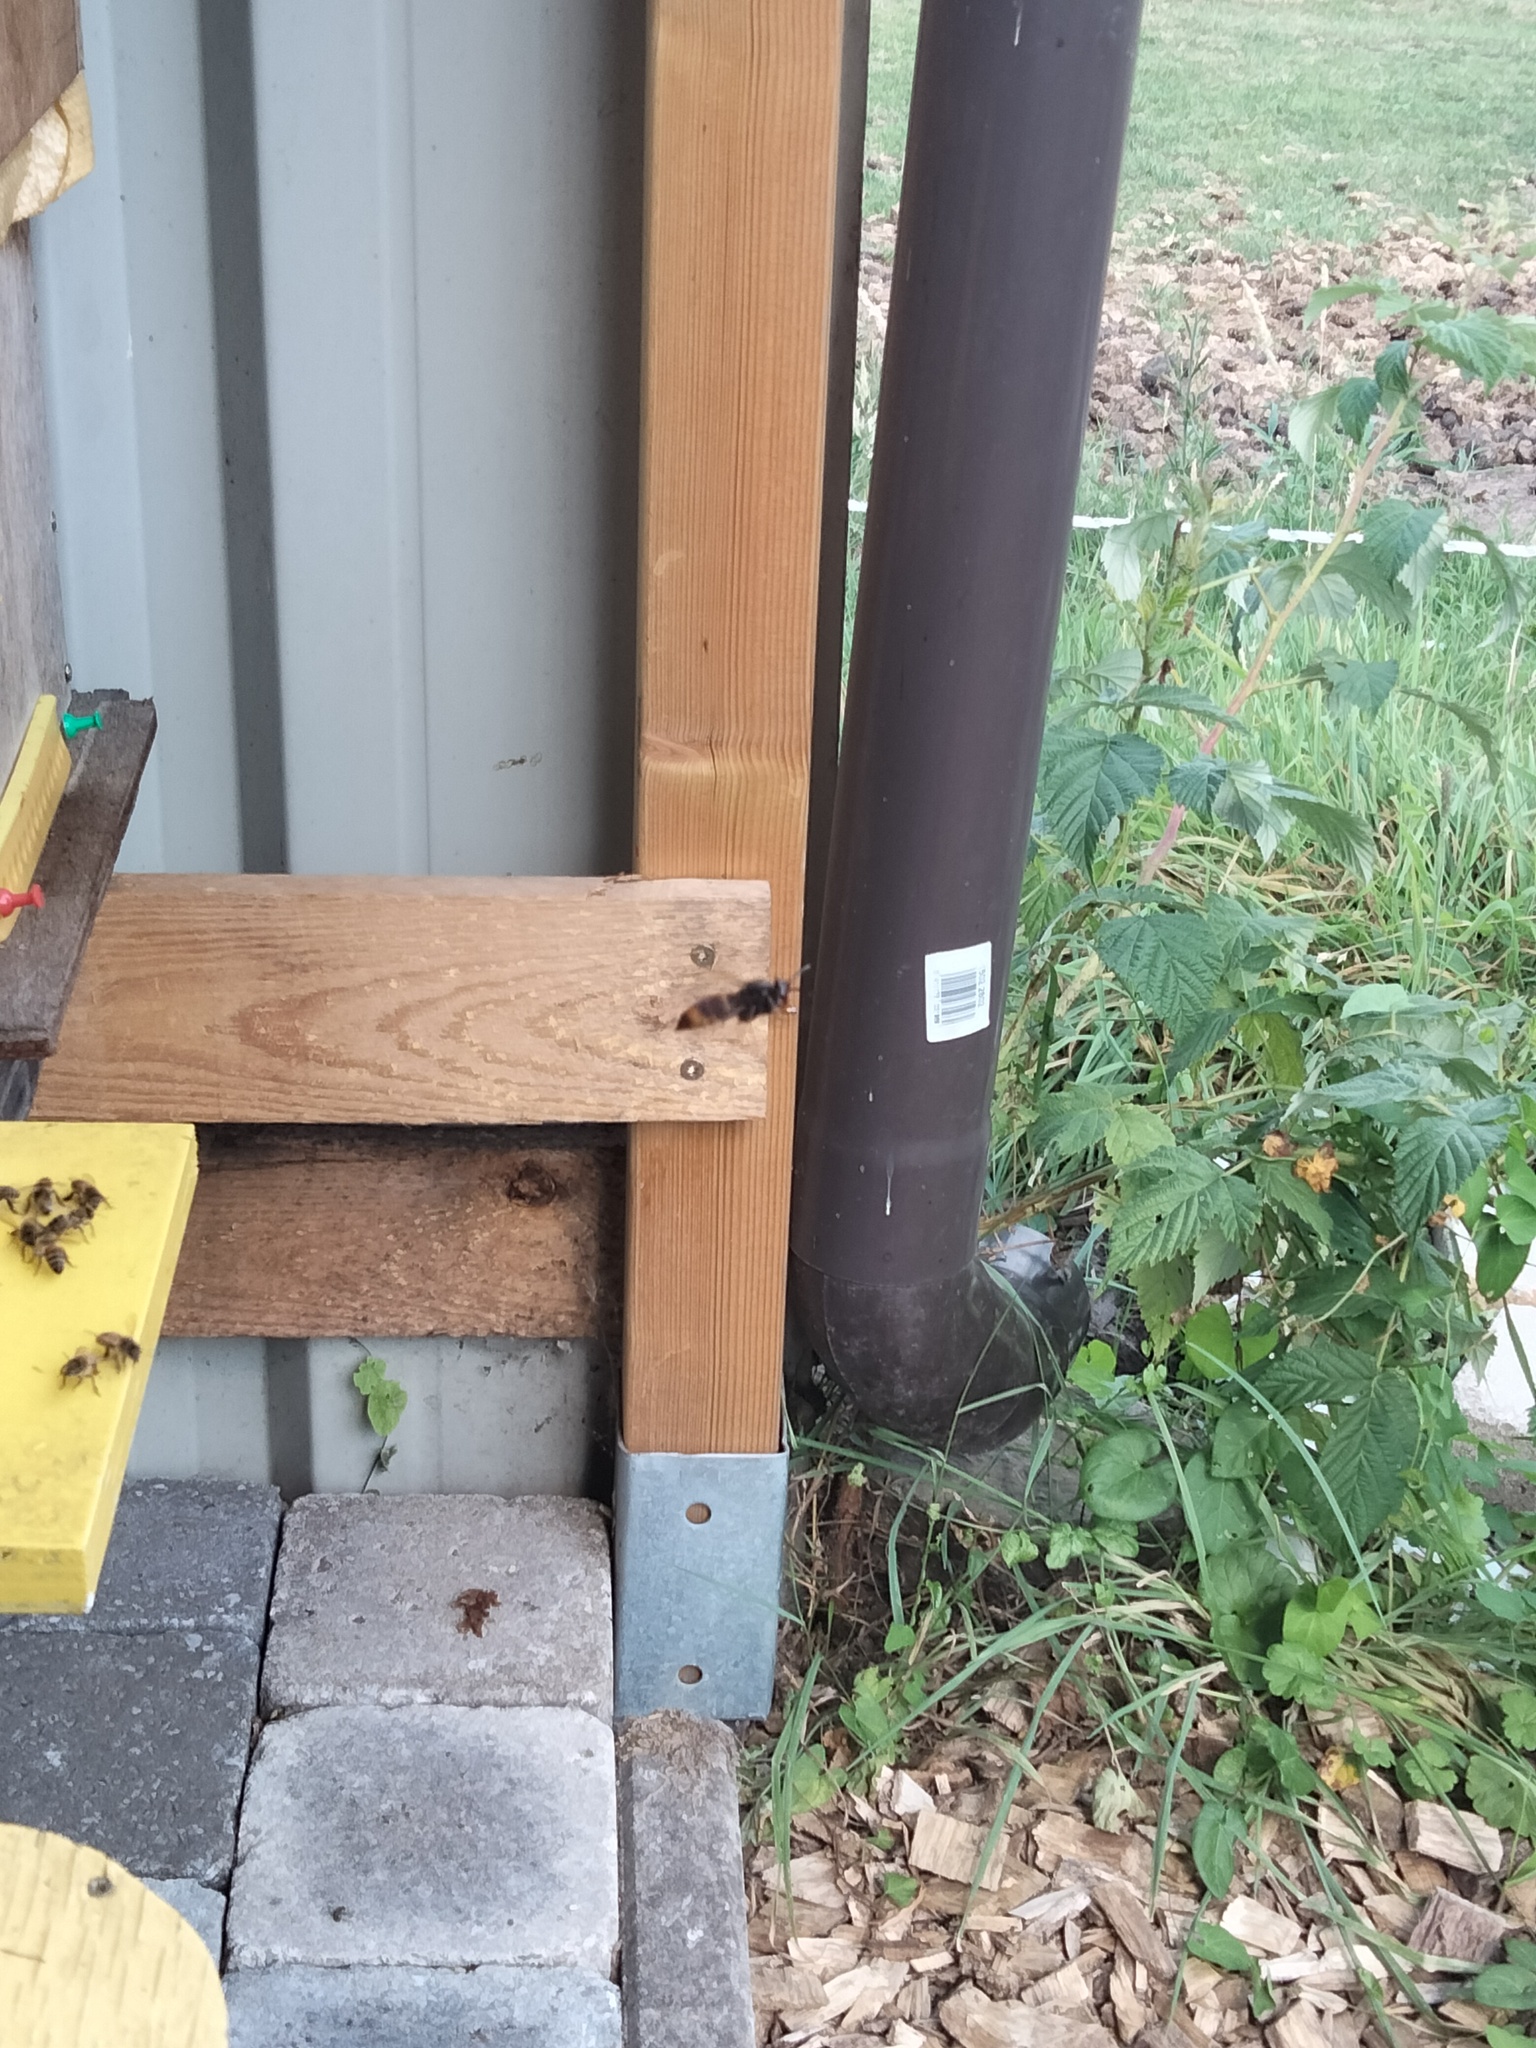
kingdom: Animalia
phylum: Arthropoda
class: Insecta
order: Hymenoptera
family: Vespidae
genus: Vespa
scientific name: Vespa velutina
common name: Asian hornet
